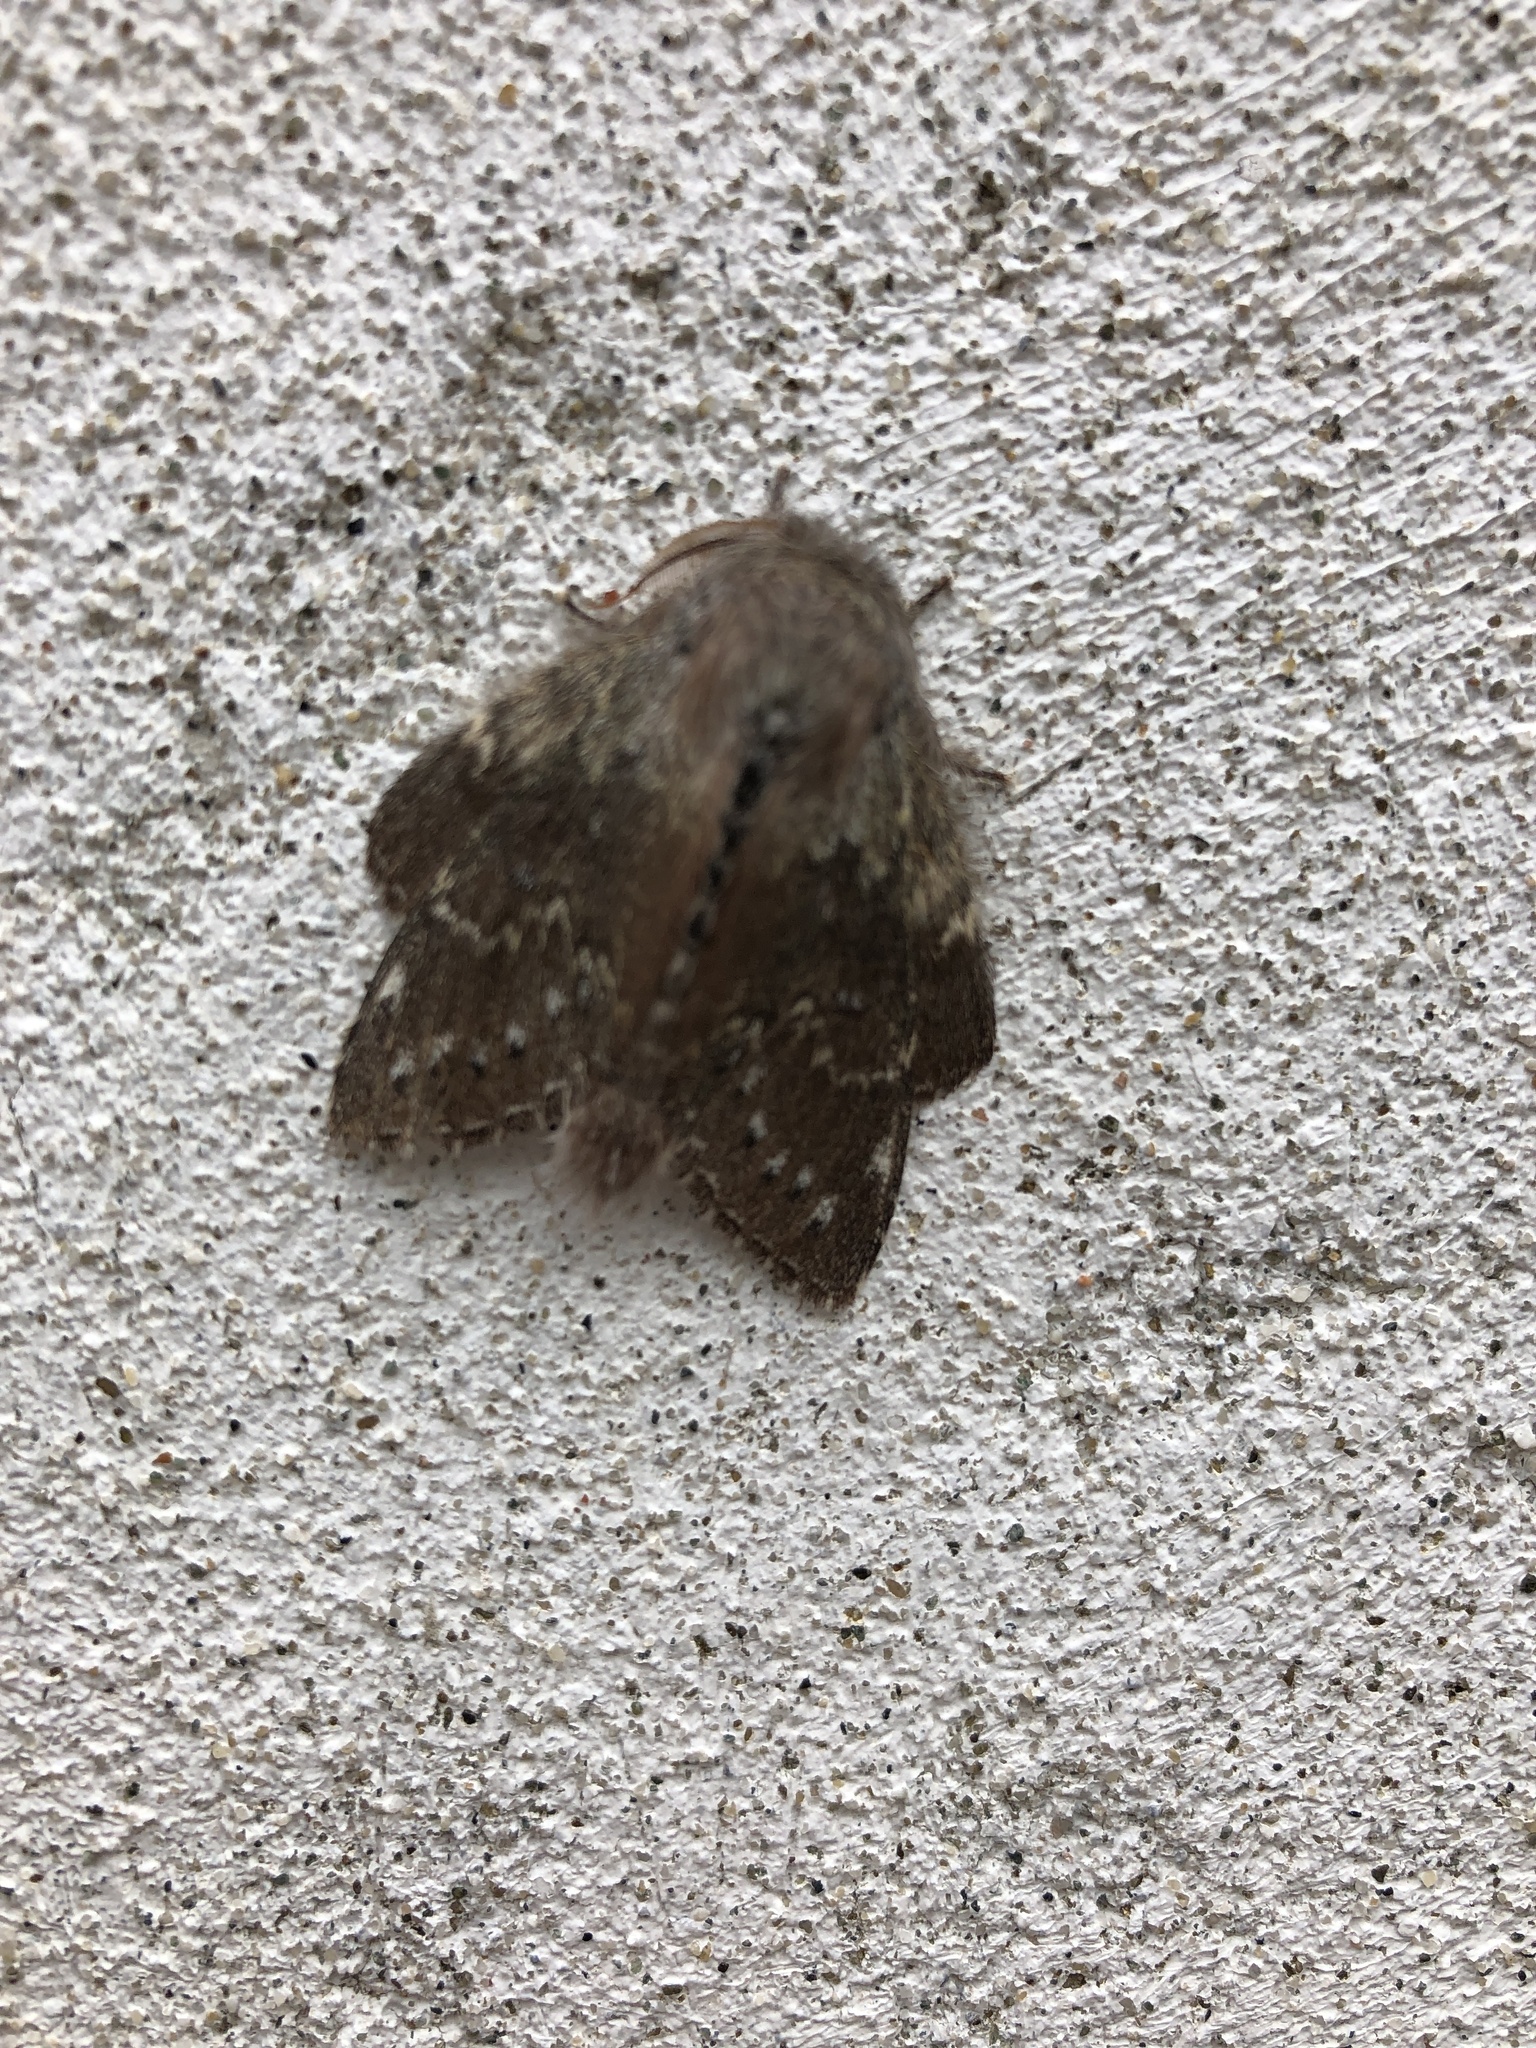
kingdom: Animalia
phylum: Arthropoda
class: Insecta
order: Lepidoptera
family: Notodontidae
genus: Stauropus
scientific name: Stauropus fagi
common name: Lobster moth
